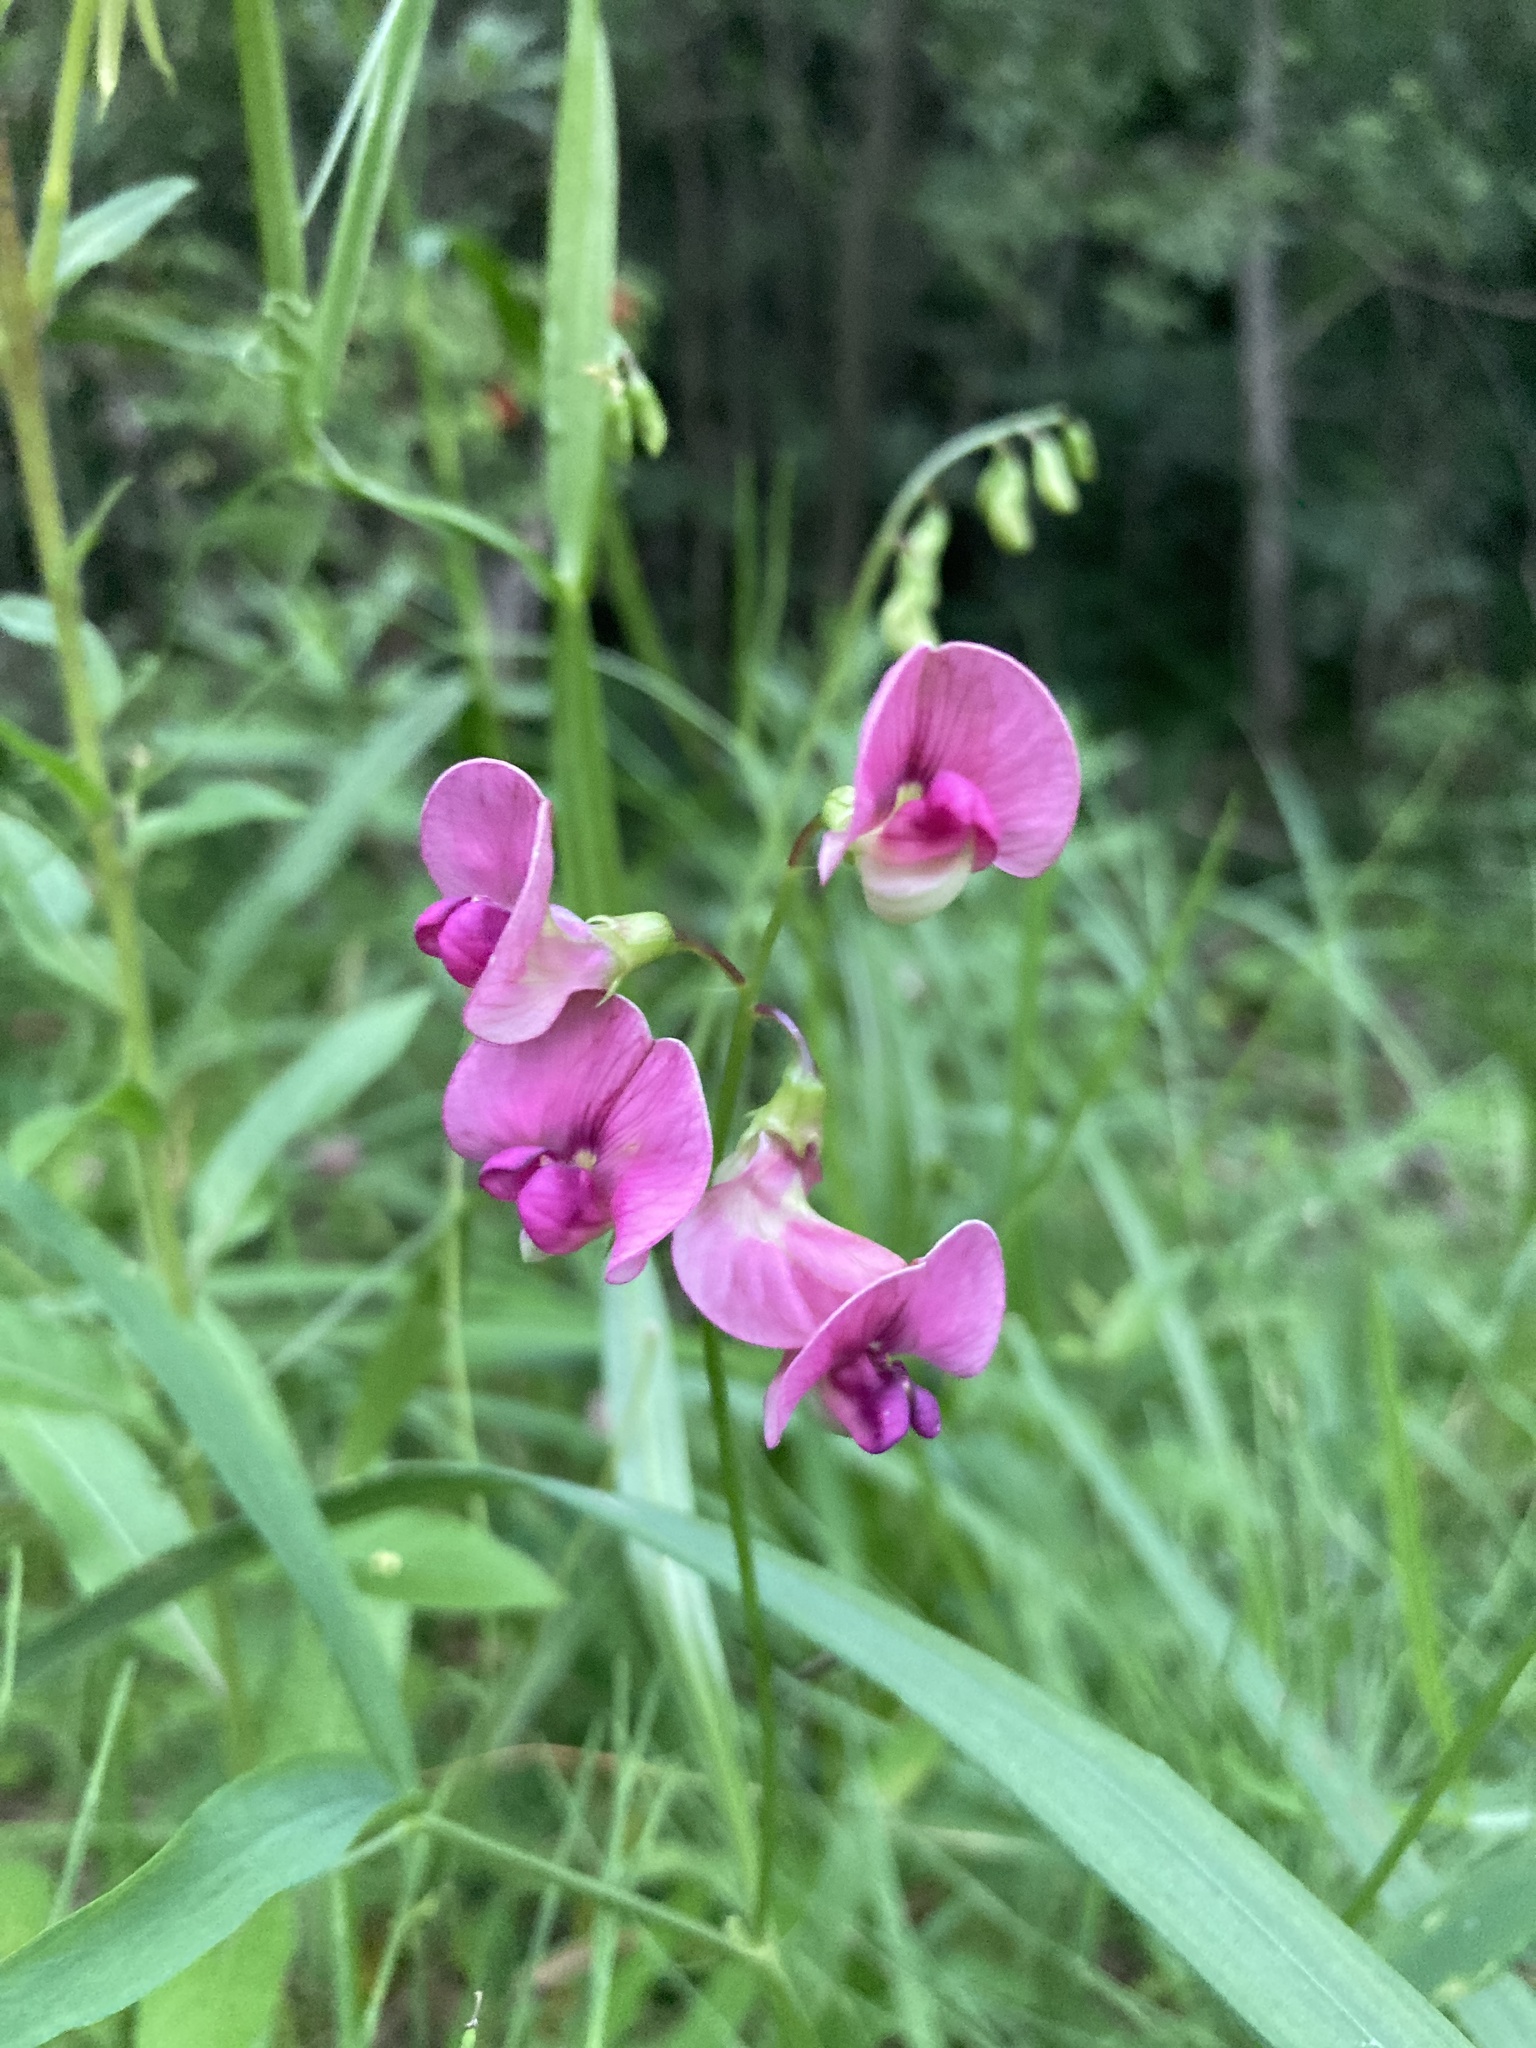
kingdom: Plantae
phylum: Tracheophyta
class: Magnoliopsida
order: Fabales
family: Fabaceae
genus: Lathyrus
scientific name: Lathyrus sylvestris
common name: Flat pea
